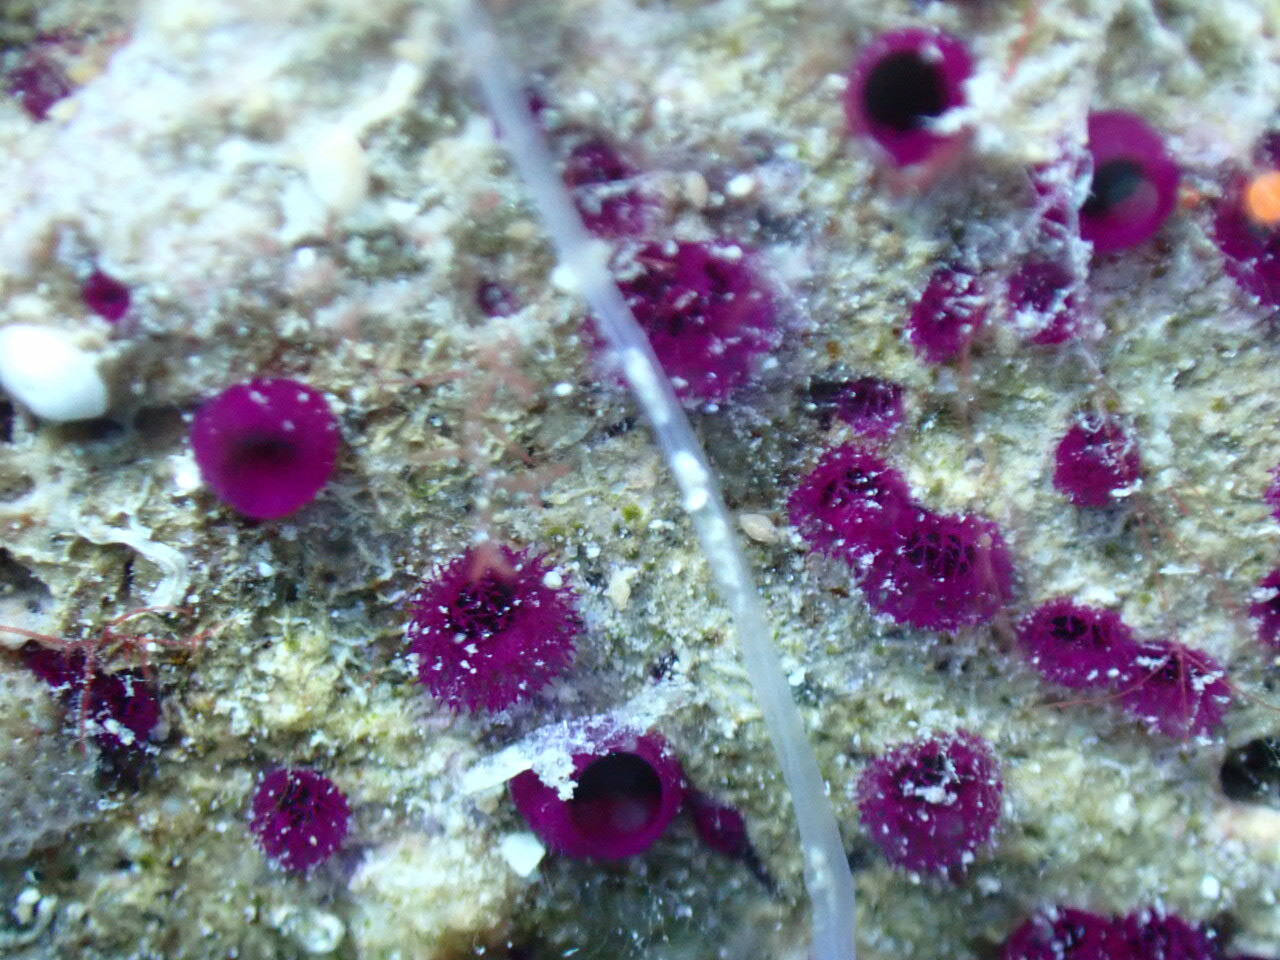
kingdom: Animalia
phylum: Porifera
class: Demospongiae
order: Clionaida
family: Clionaidae
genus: Cliona
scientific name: Cliona schmidtii
